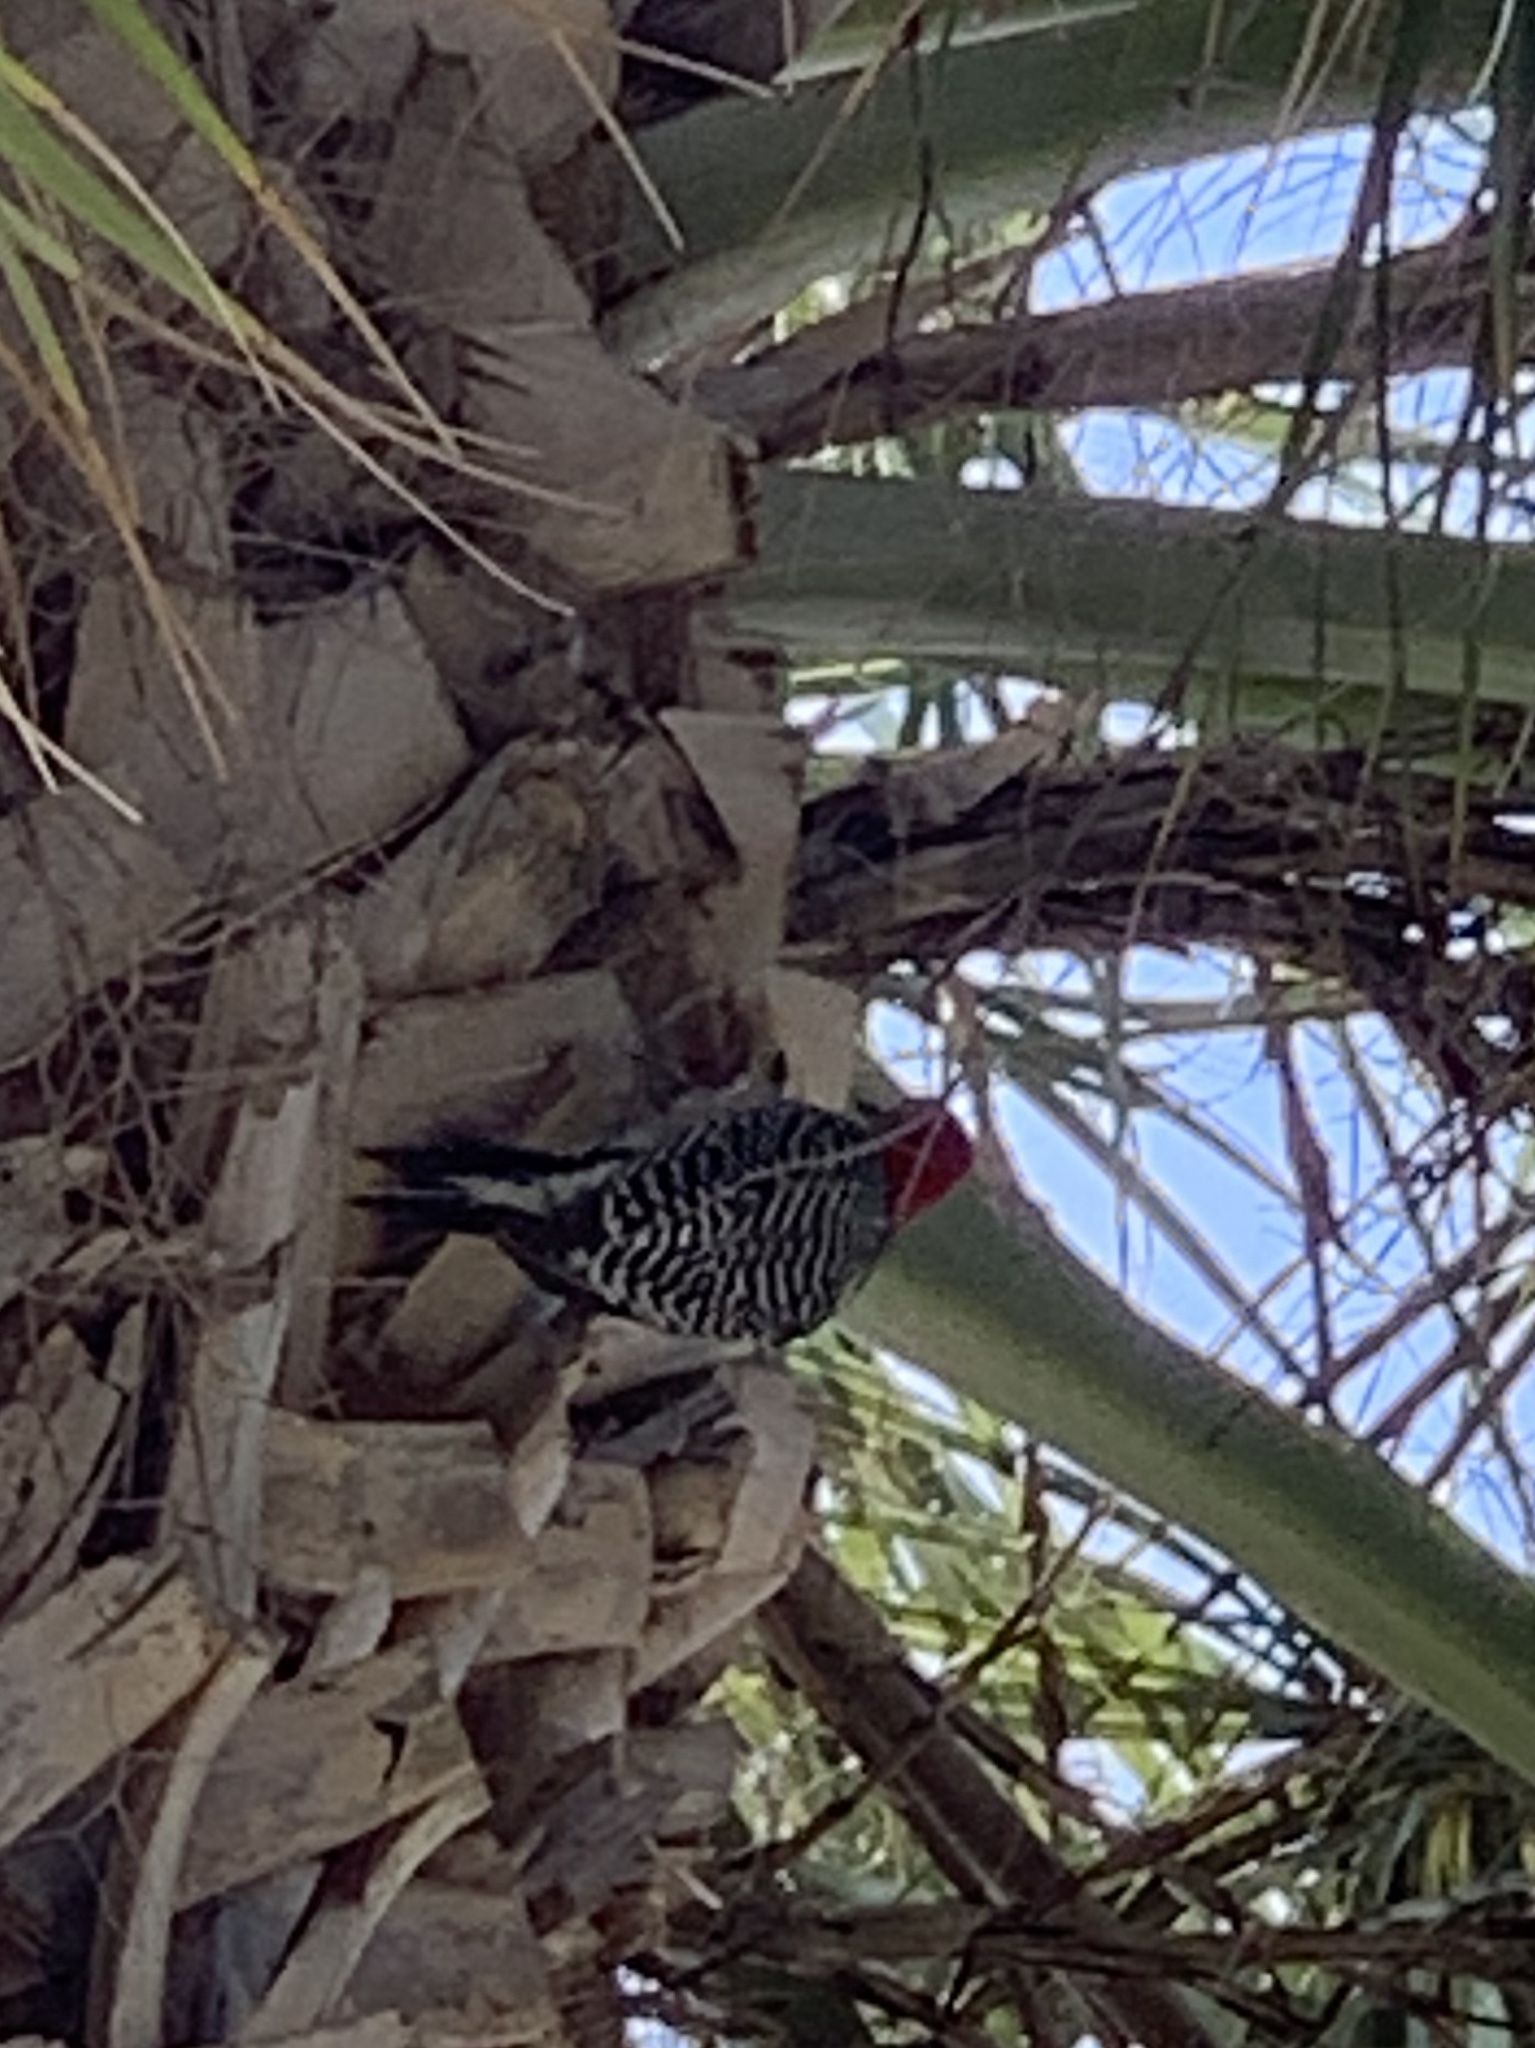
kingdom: Animalia
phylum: Chordata
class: Aves
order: Piciformes
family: Picidae
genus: Melanerpes
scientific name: Melanerpes carolinus
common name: Red-bellied woodpecker
